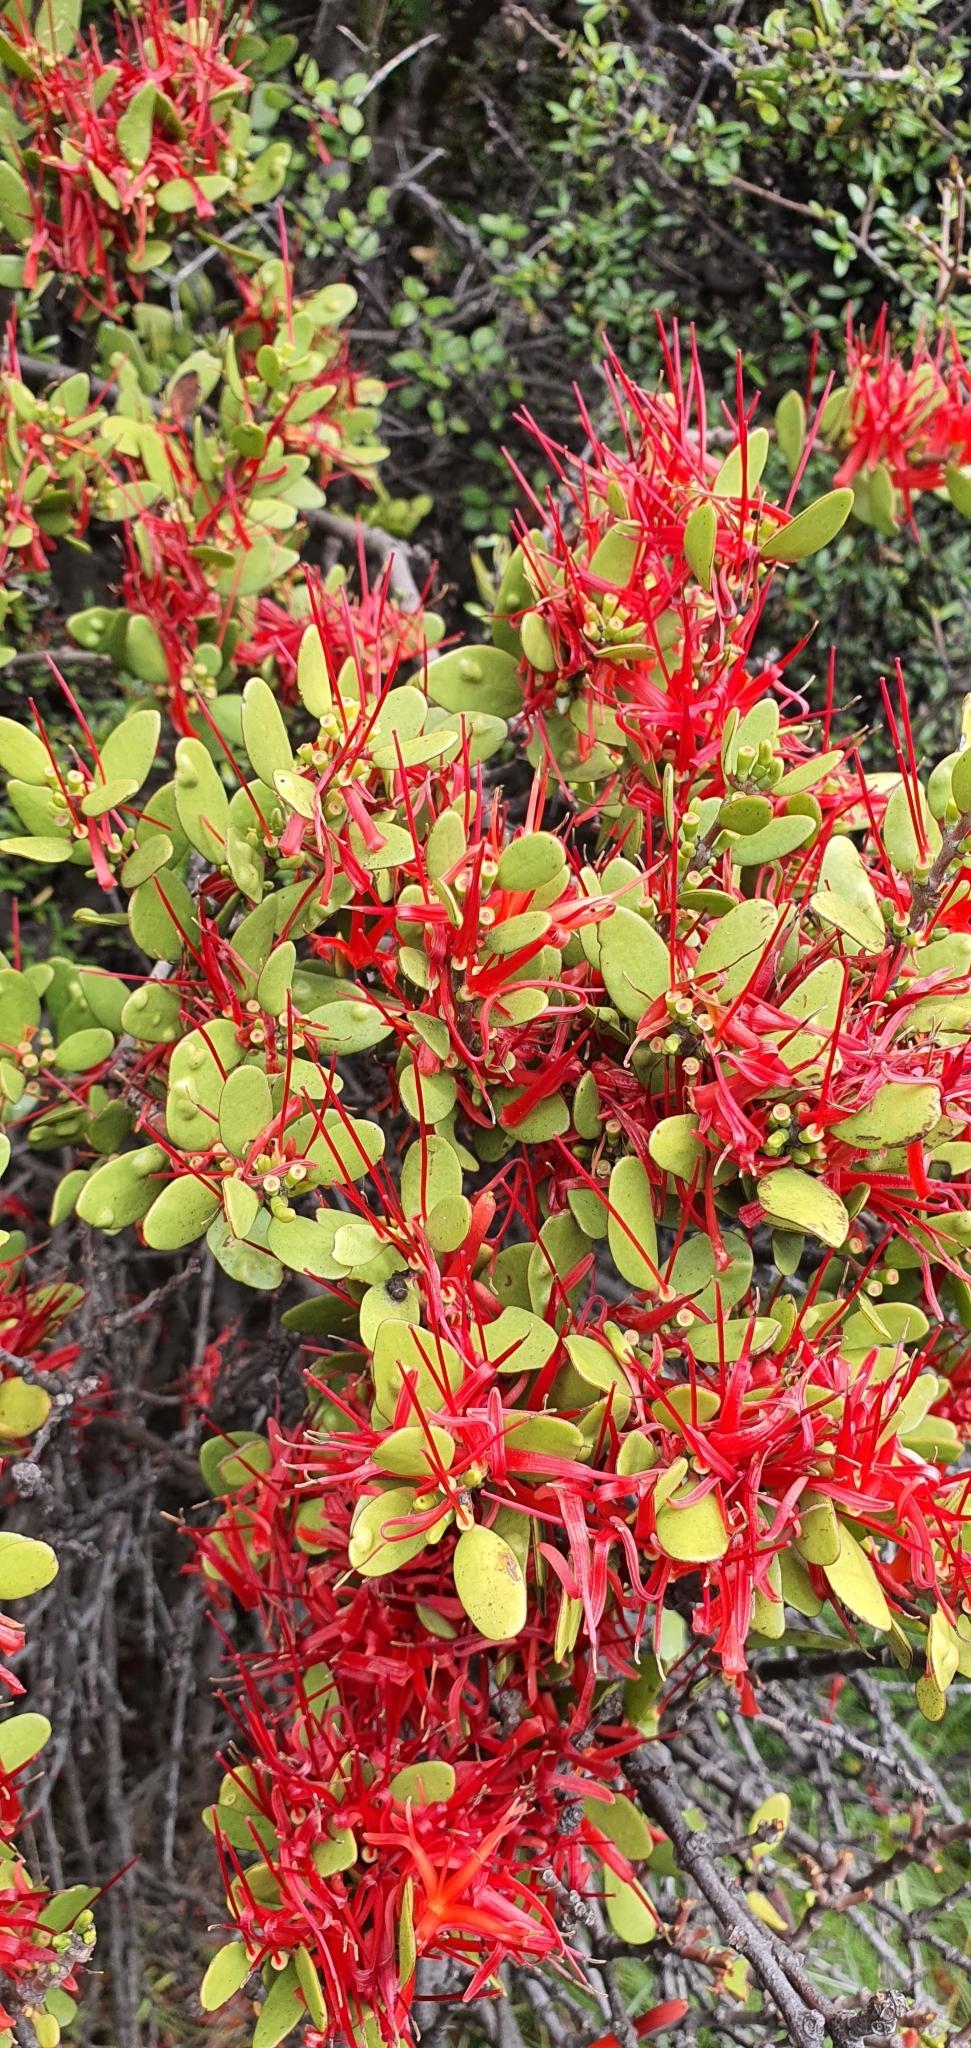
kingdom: Plantae
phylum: Tracheophyta
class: Magnoliopsida
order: Santalales
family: Loranthaceae
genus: Peraxilla
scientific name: Peraxilla tetrapetala
